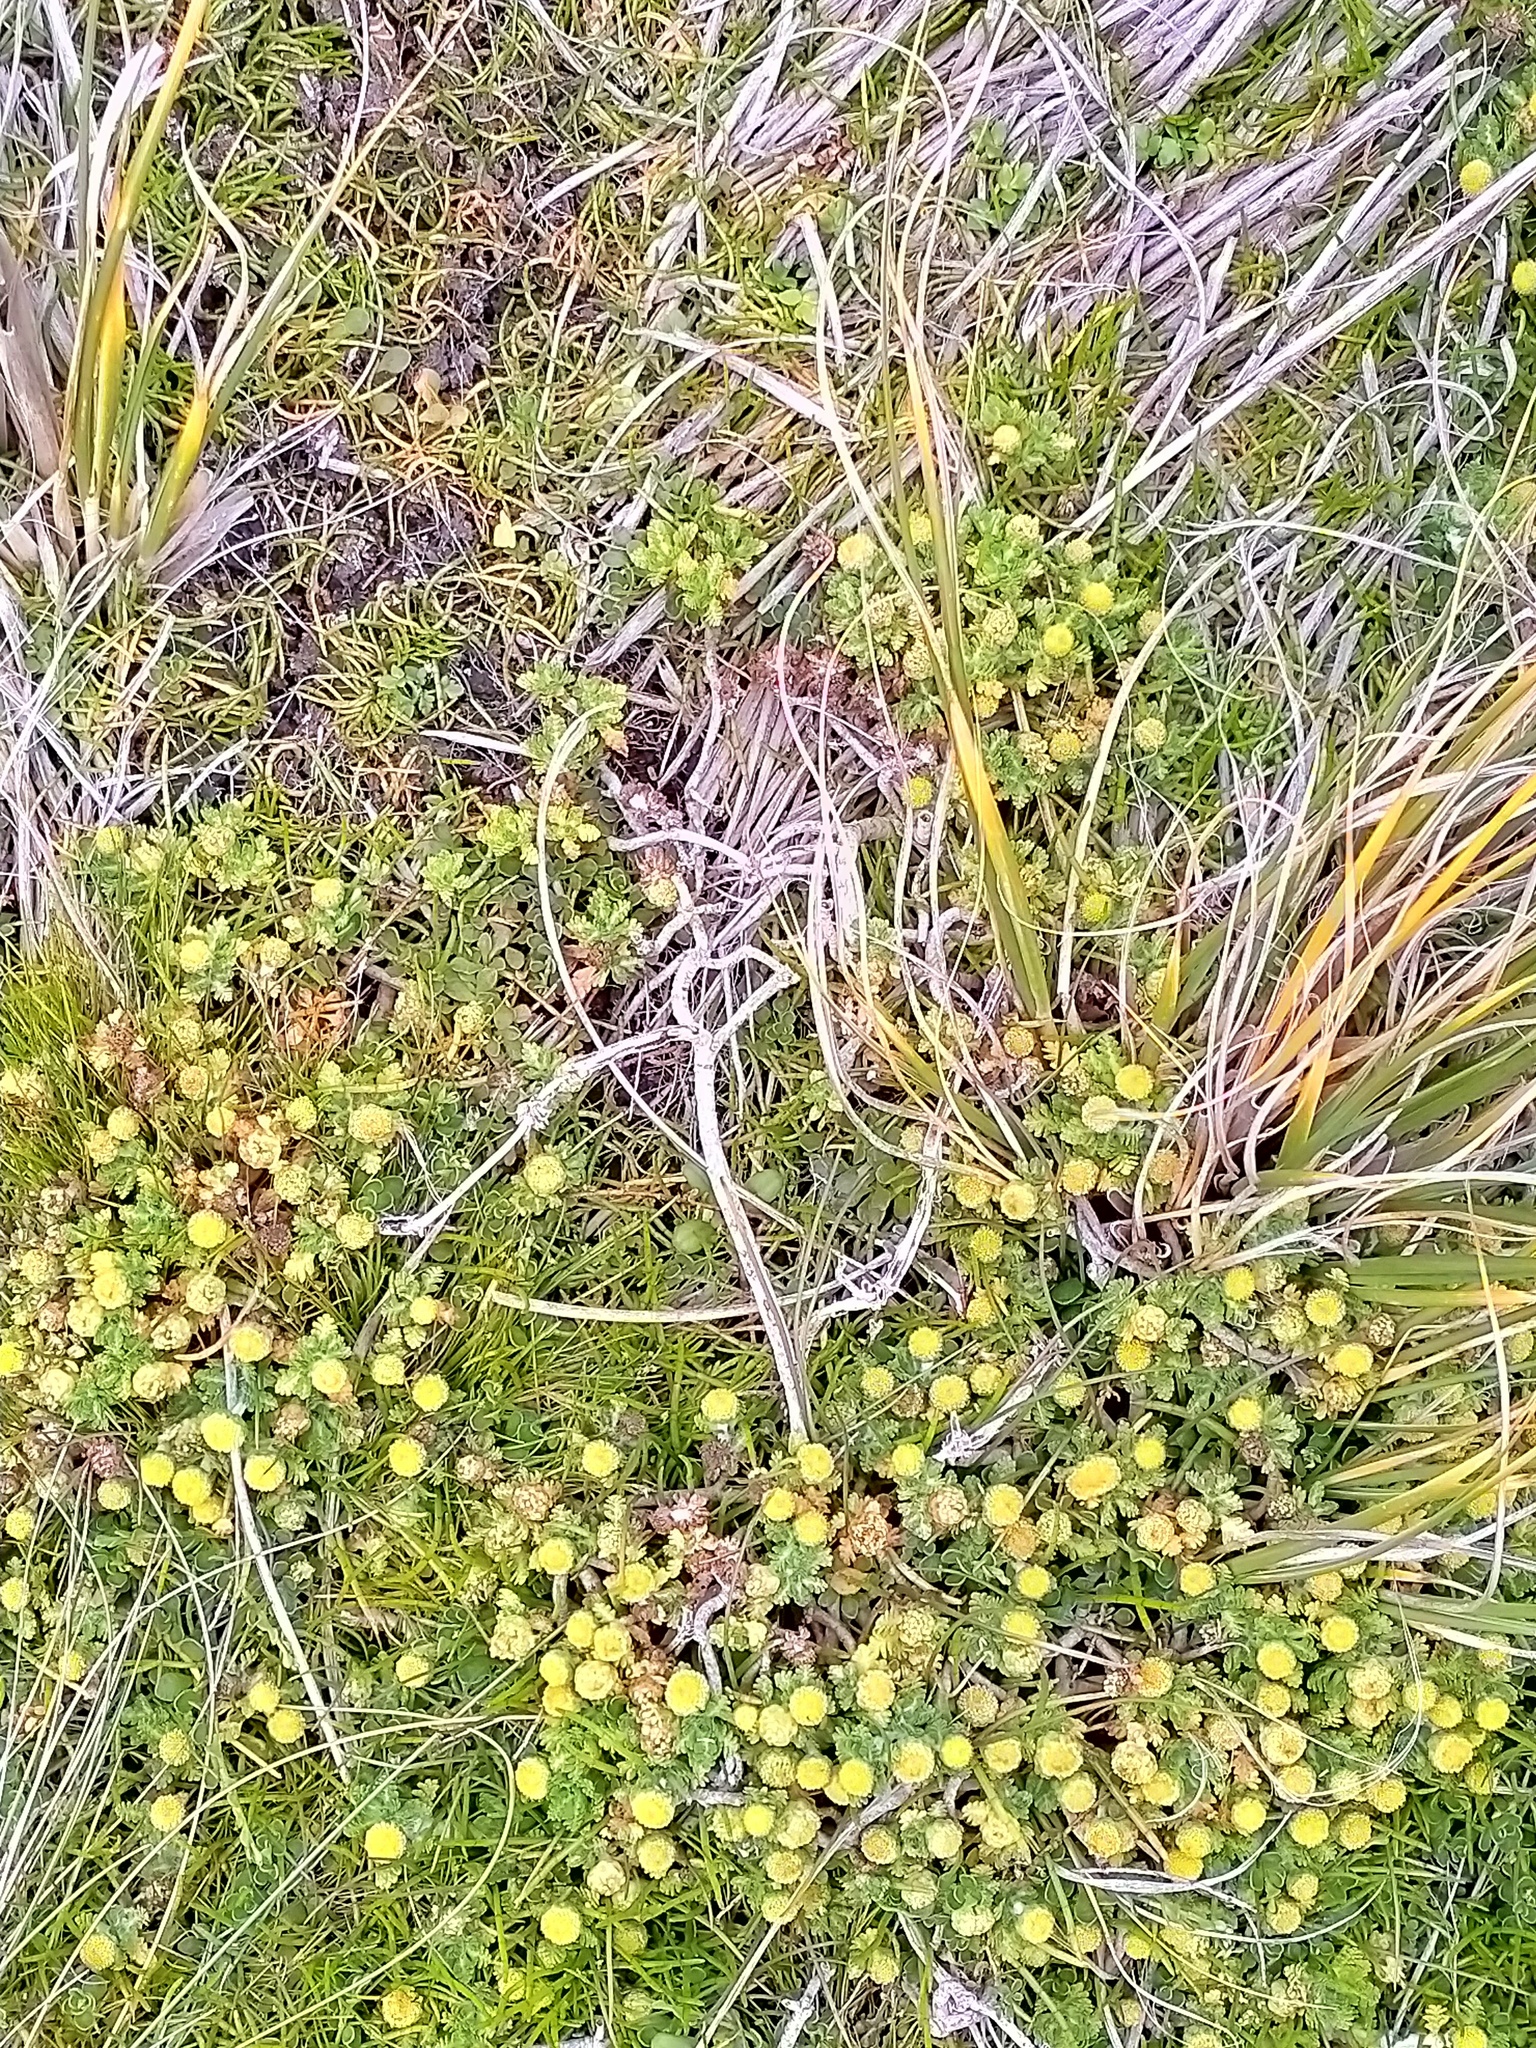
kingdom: Plantae
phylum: Tracheophyta
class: Magnoliopsida
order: Asterales
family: Asteraceae
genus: Leptinella
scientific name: Leptinella lanata
